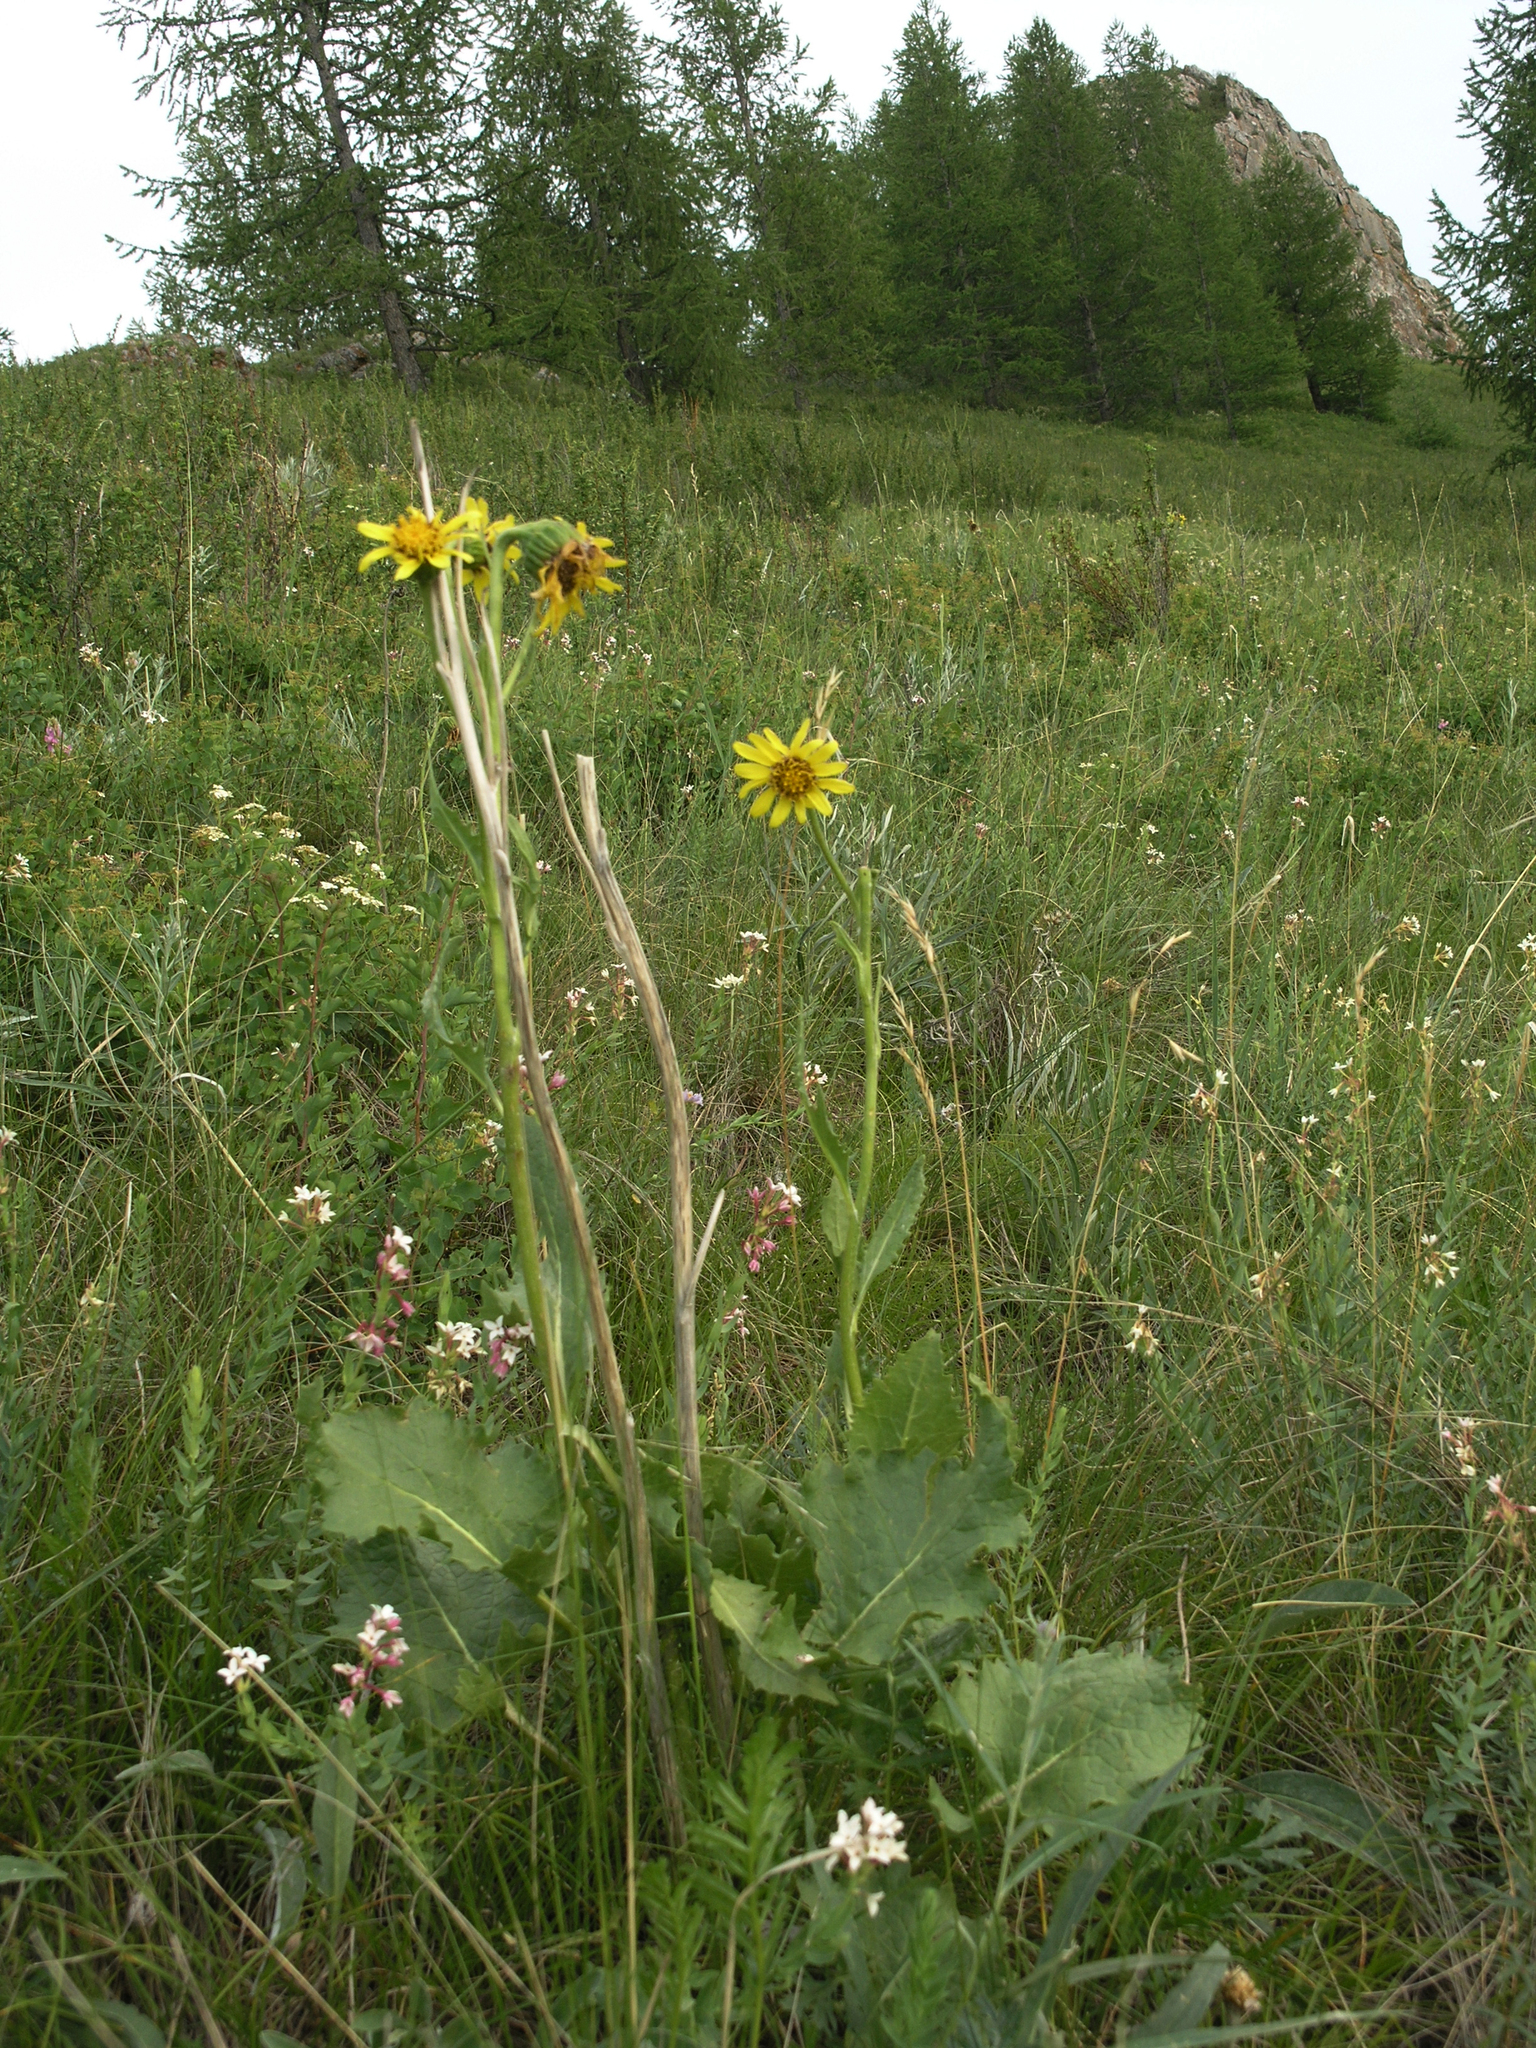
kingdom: Plantae
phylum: Tracheophyta
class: Magnoliopsida
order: Malvales
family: Thymelaeaceae
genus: Diarthron
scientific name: Diarthron altaicum
